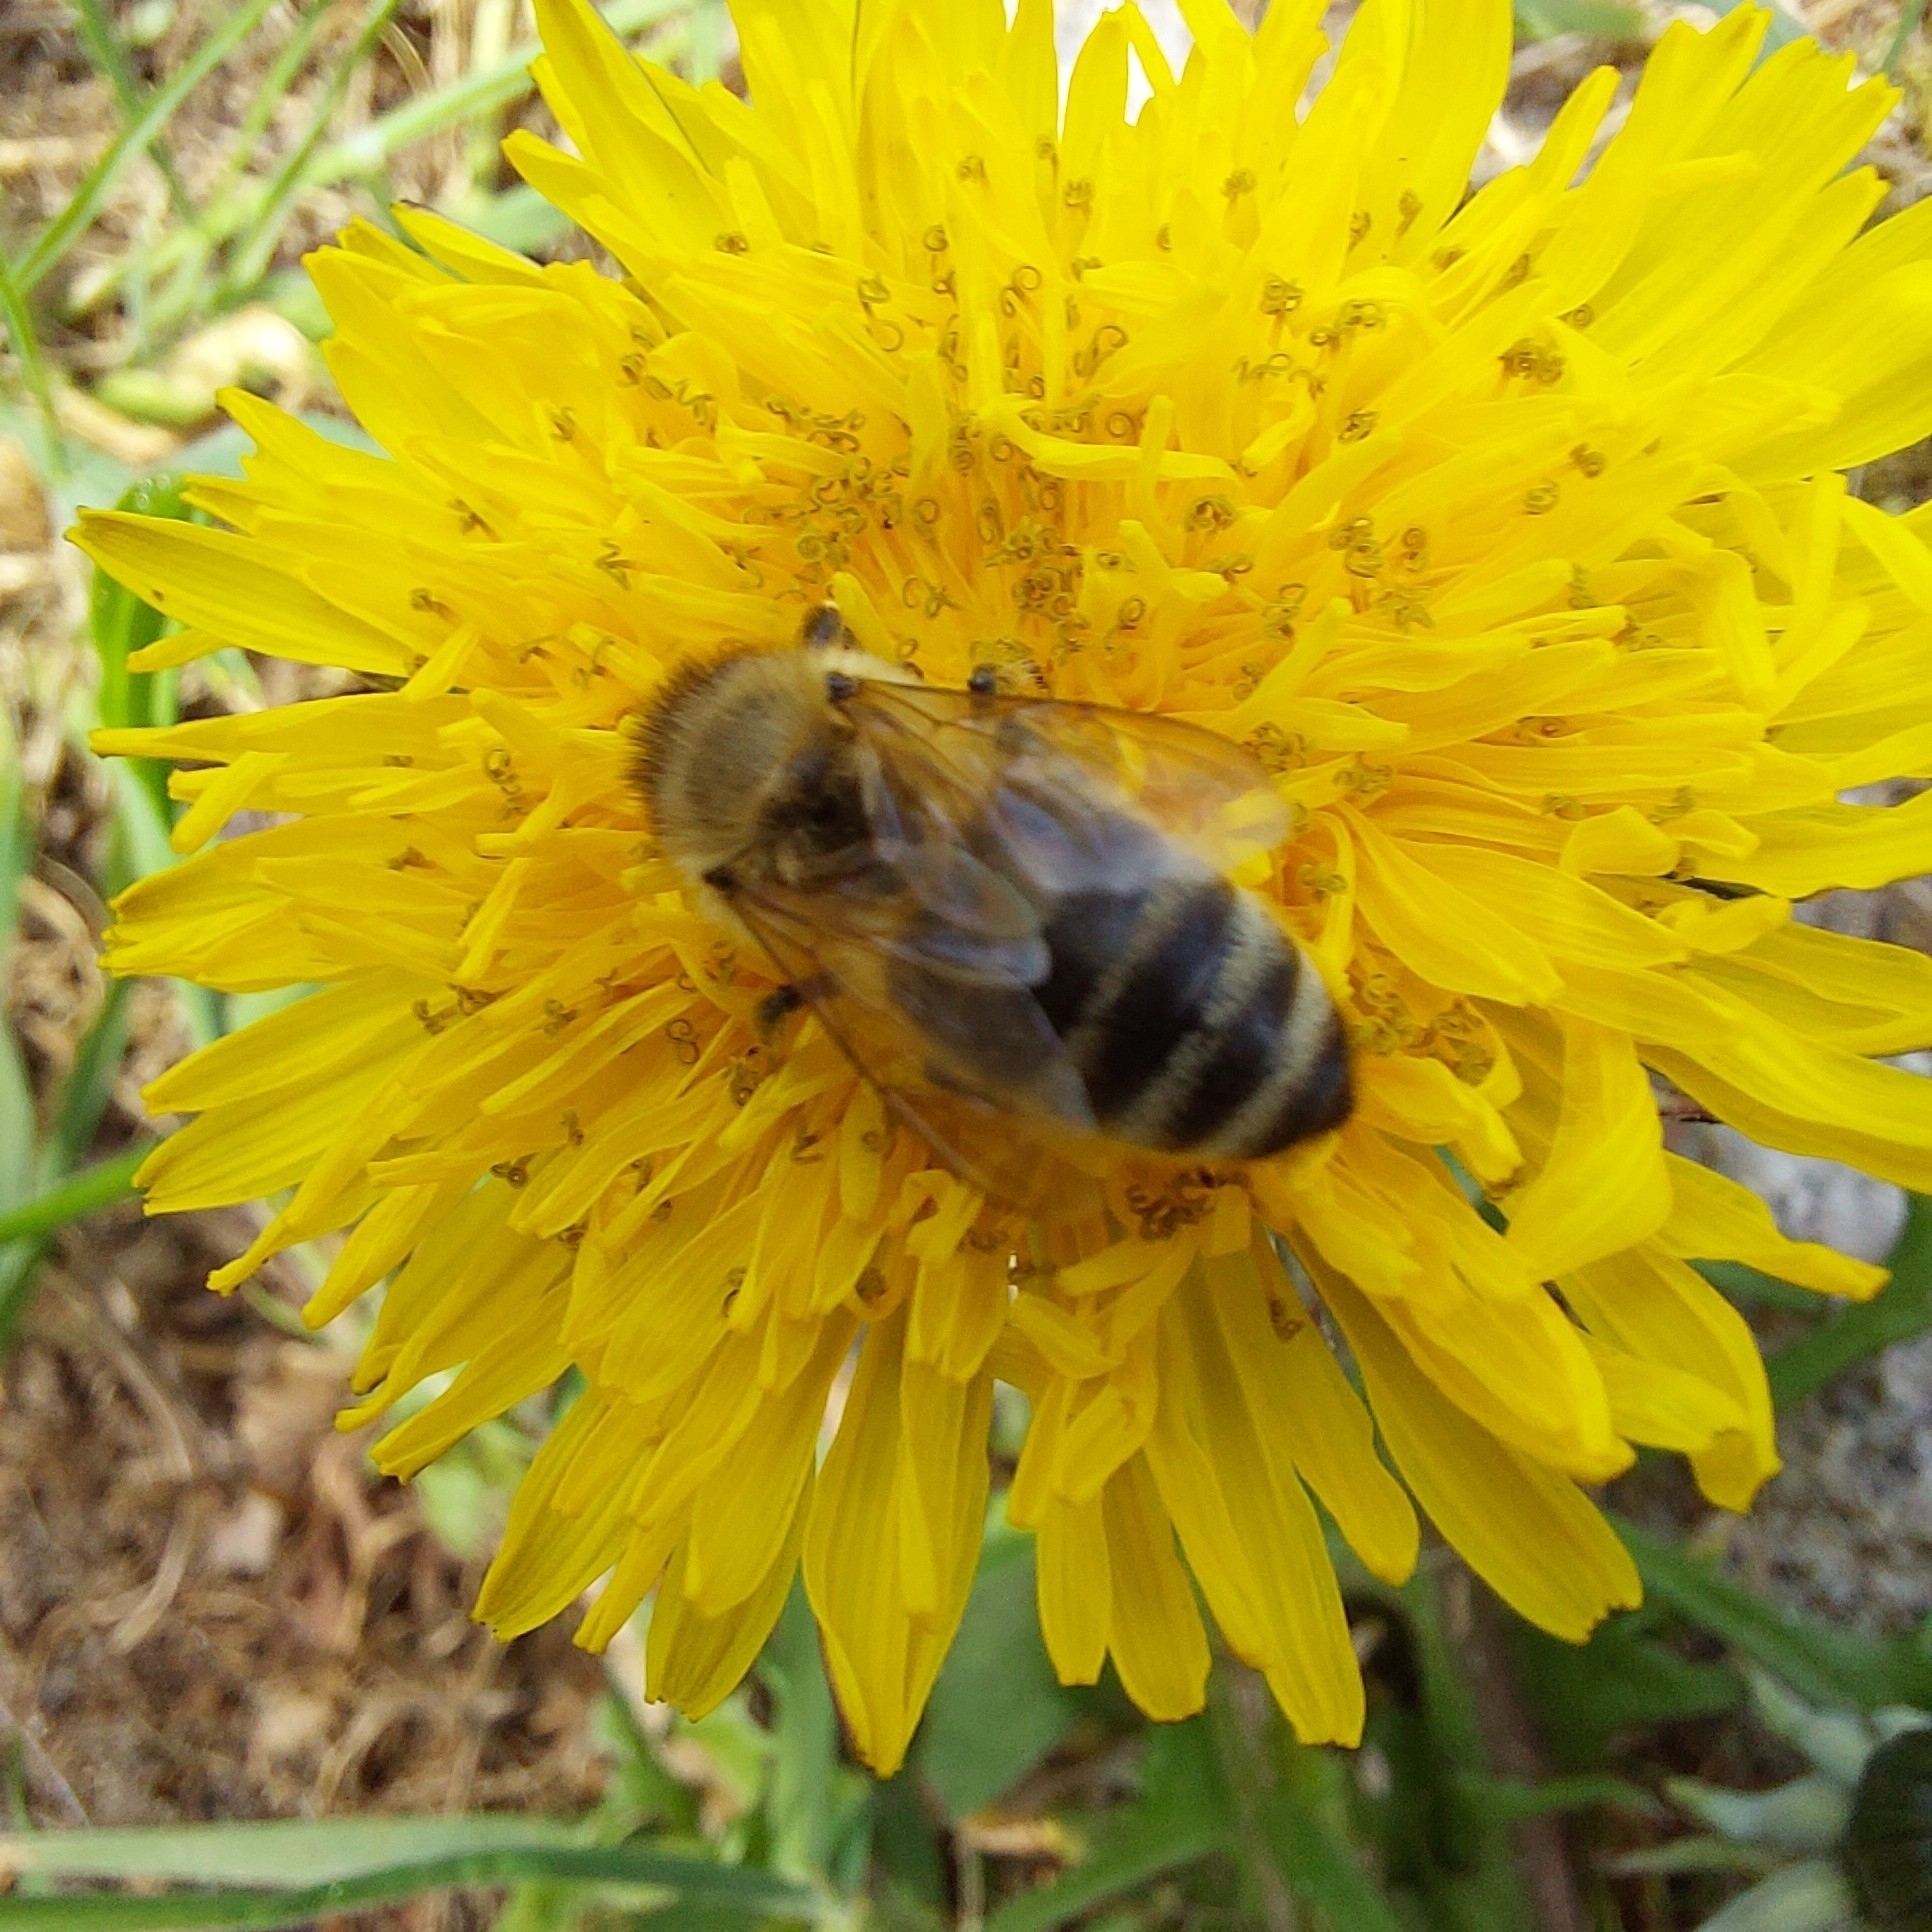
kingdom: Animalia
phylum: Arthropoda
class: Insecta
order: Hymenoptera
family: Apidae
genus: Apis
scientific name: Apis mellifera
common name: Honey bee
